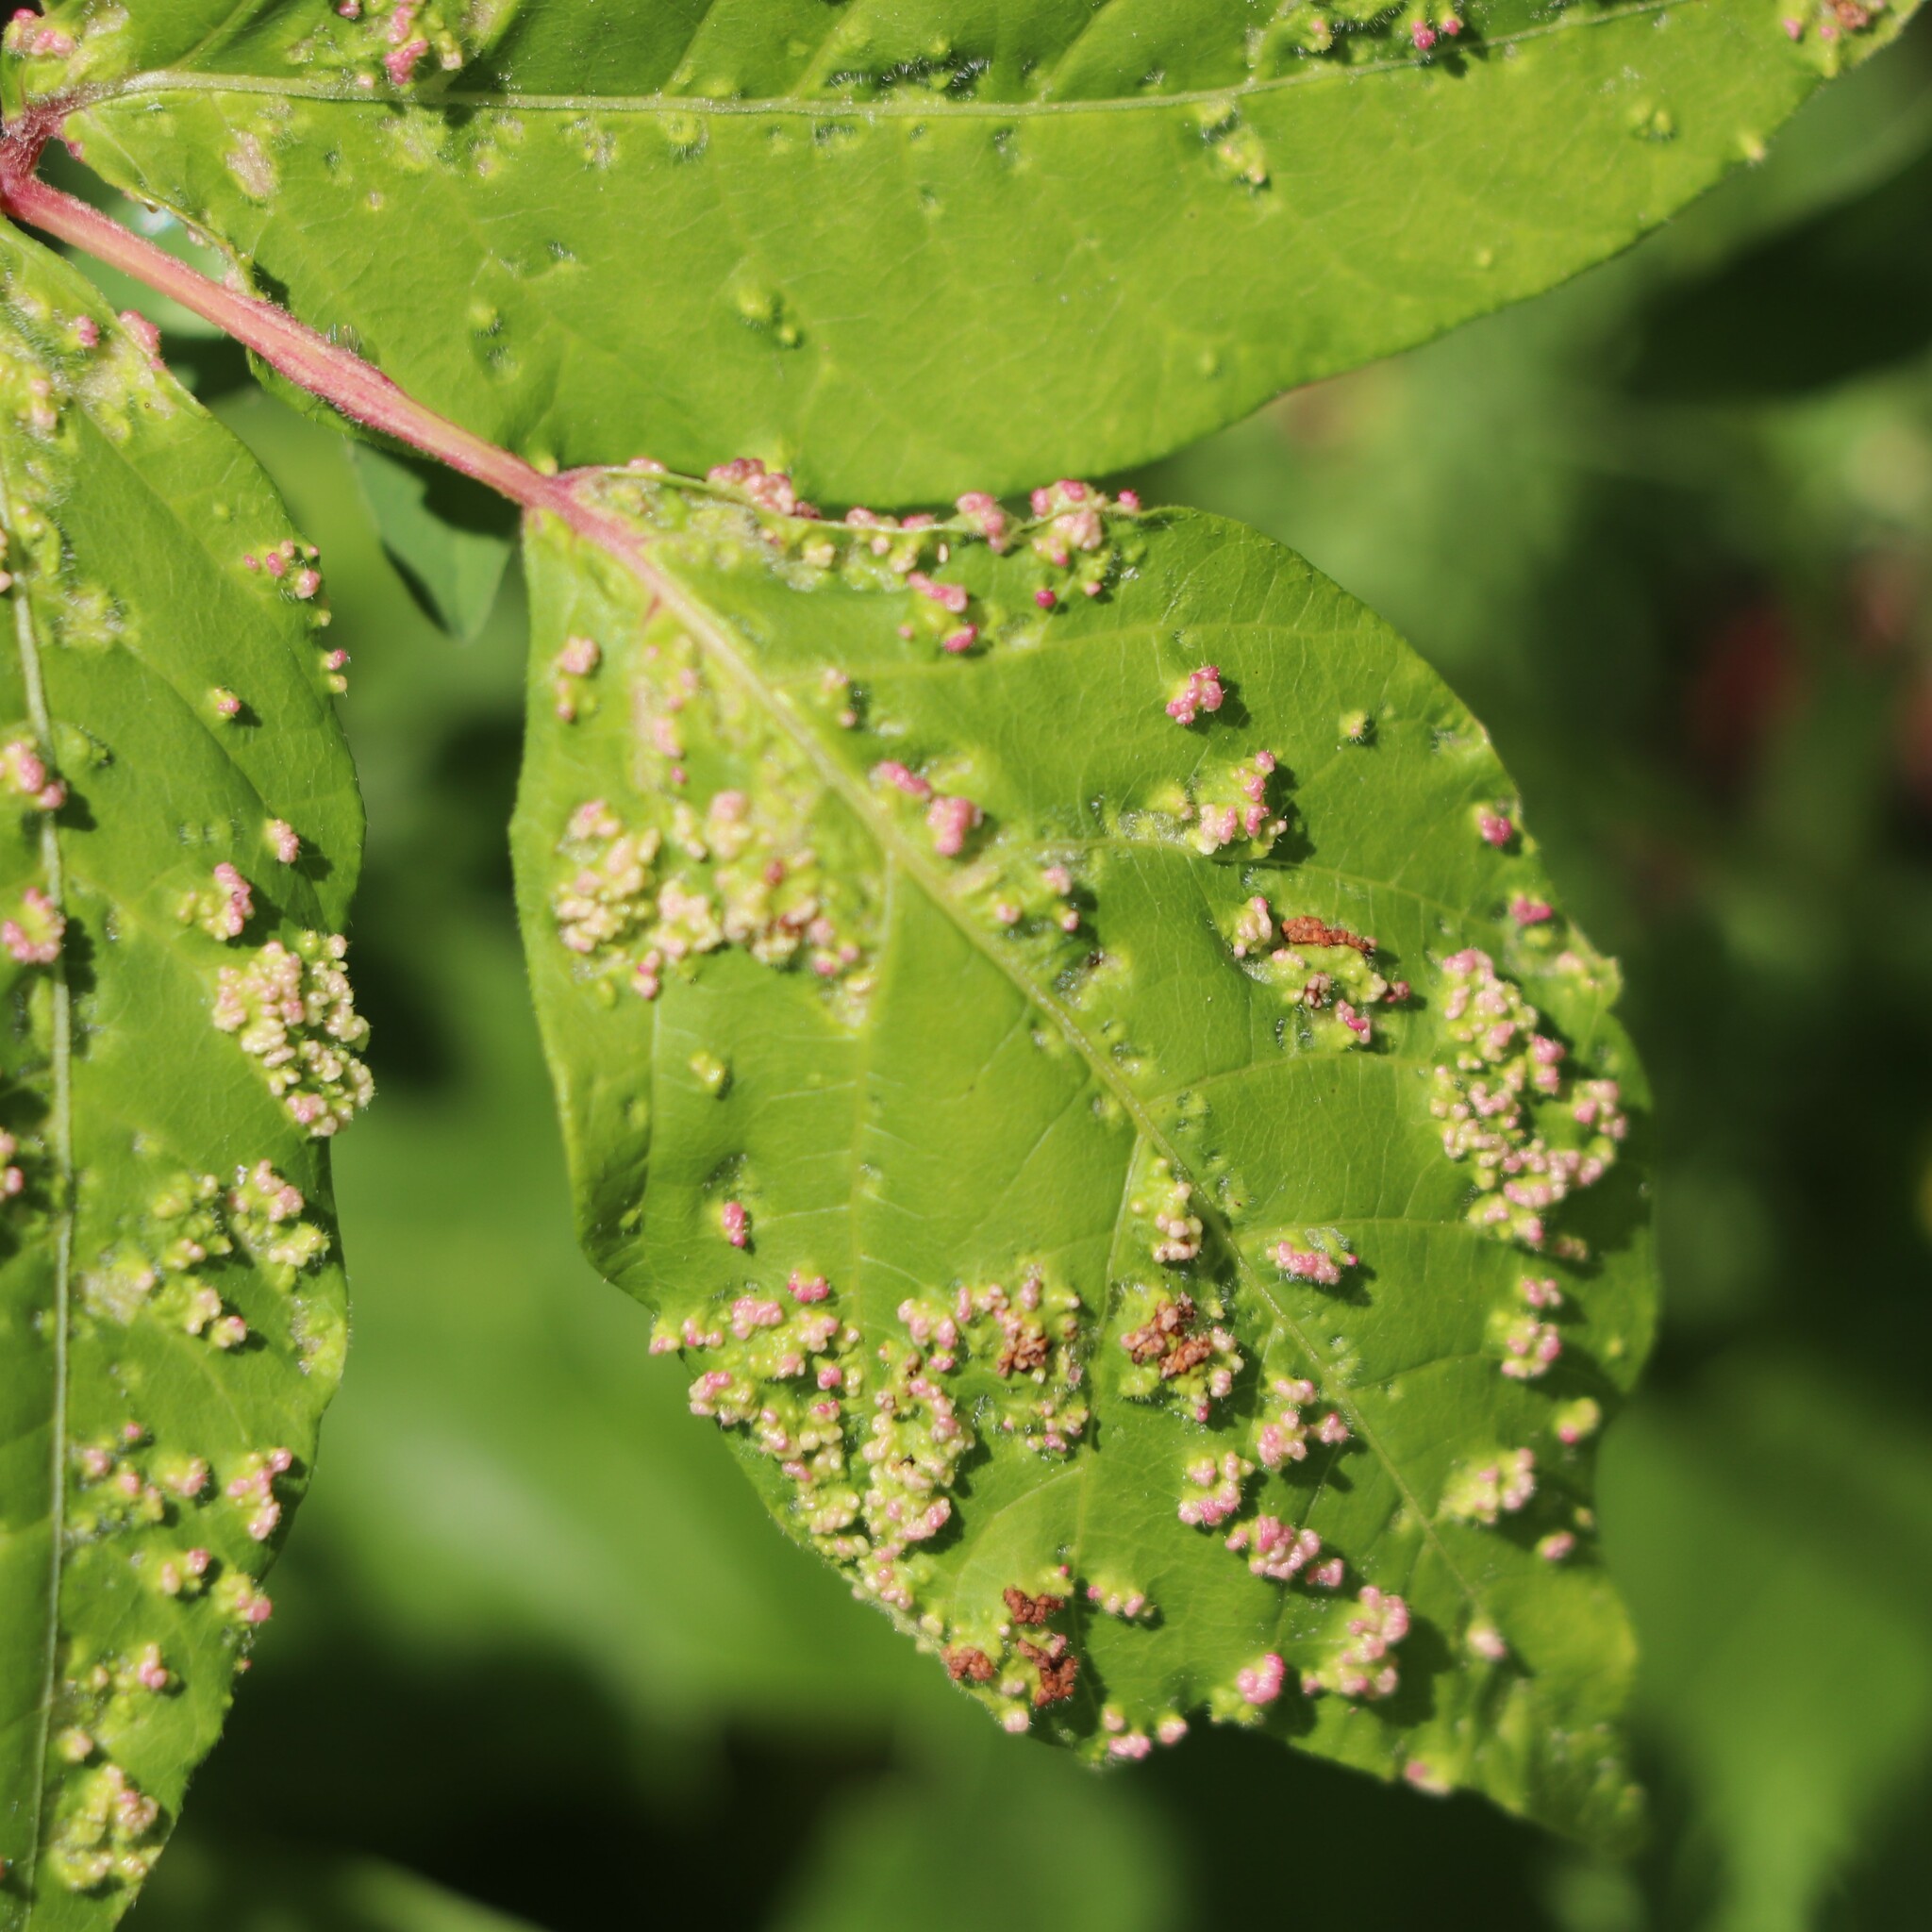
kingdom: Animalia
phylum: Arthropoda
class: Arachnida
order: Trombidiformes
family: Eriophyidae
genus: Aculops
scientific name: Aculops
